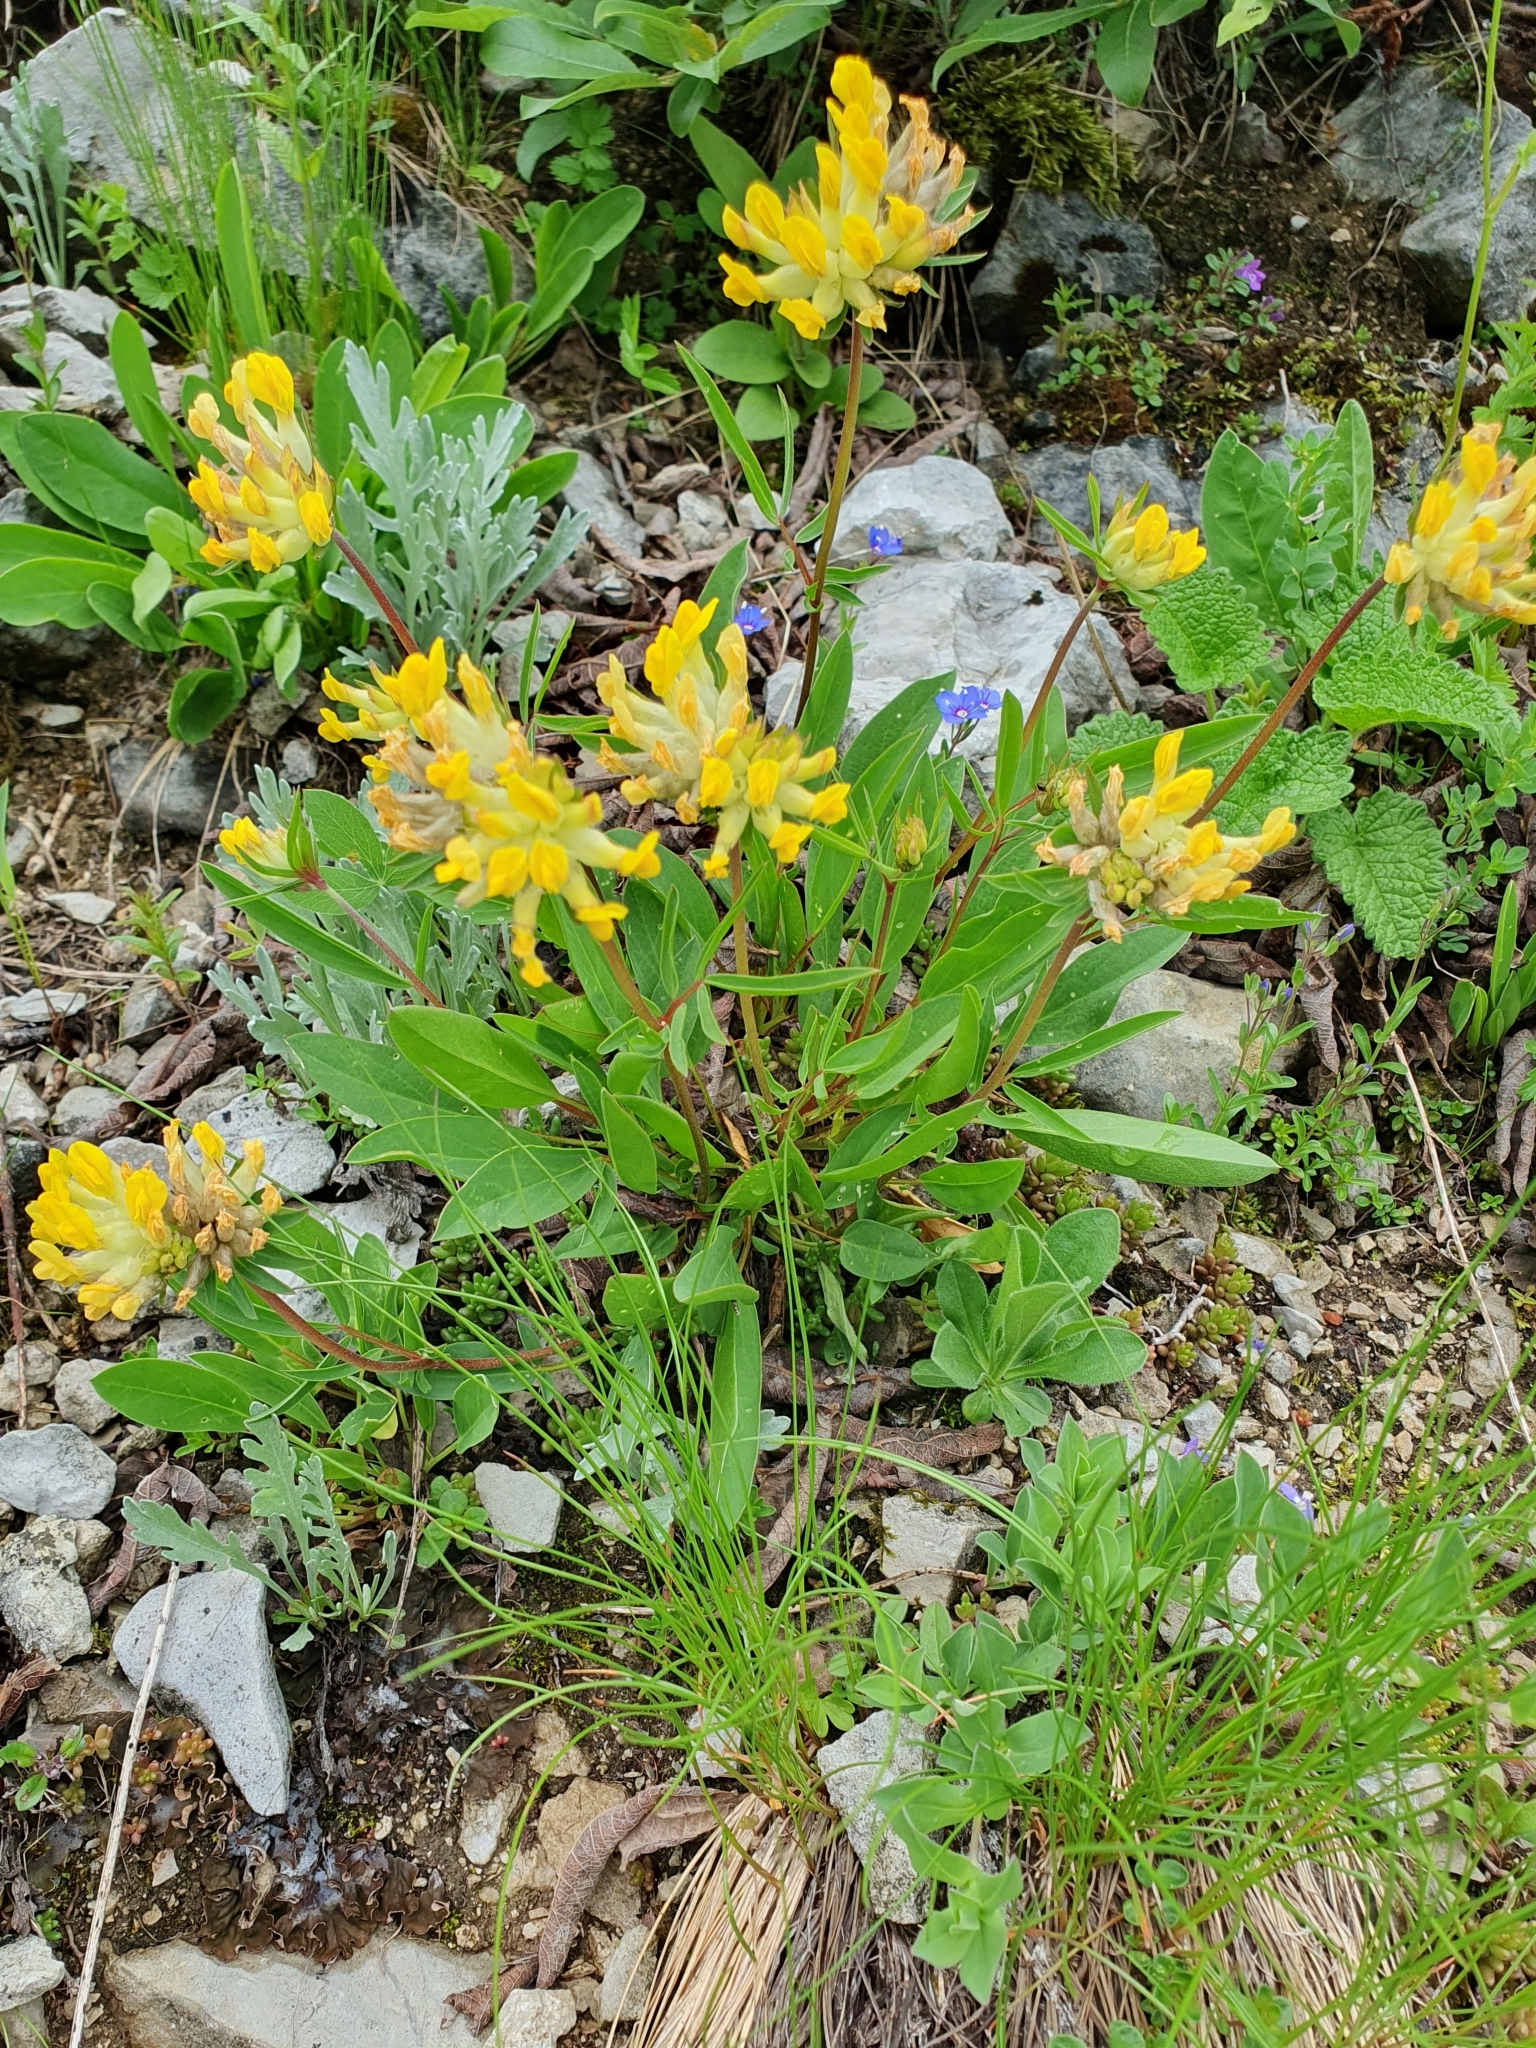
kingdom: Plantae
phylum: Tracheophyta
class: Magnoliopsida
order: Fabales
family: Fabaceae
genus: Anthyllis
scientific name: Anthyllis vulneraria
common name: Kidney vetch
